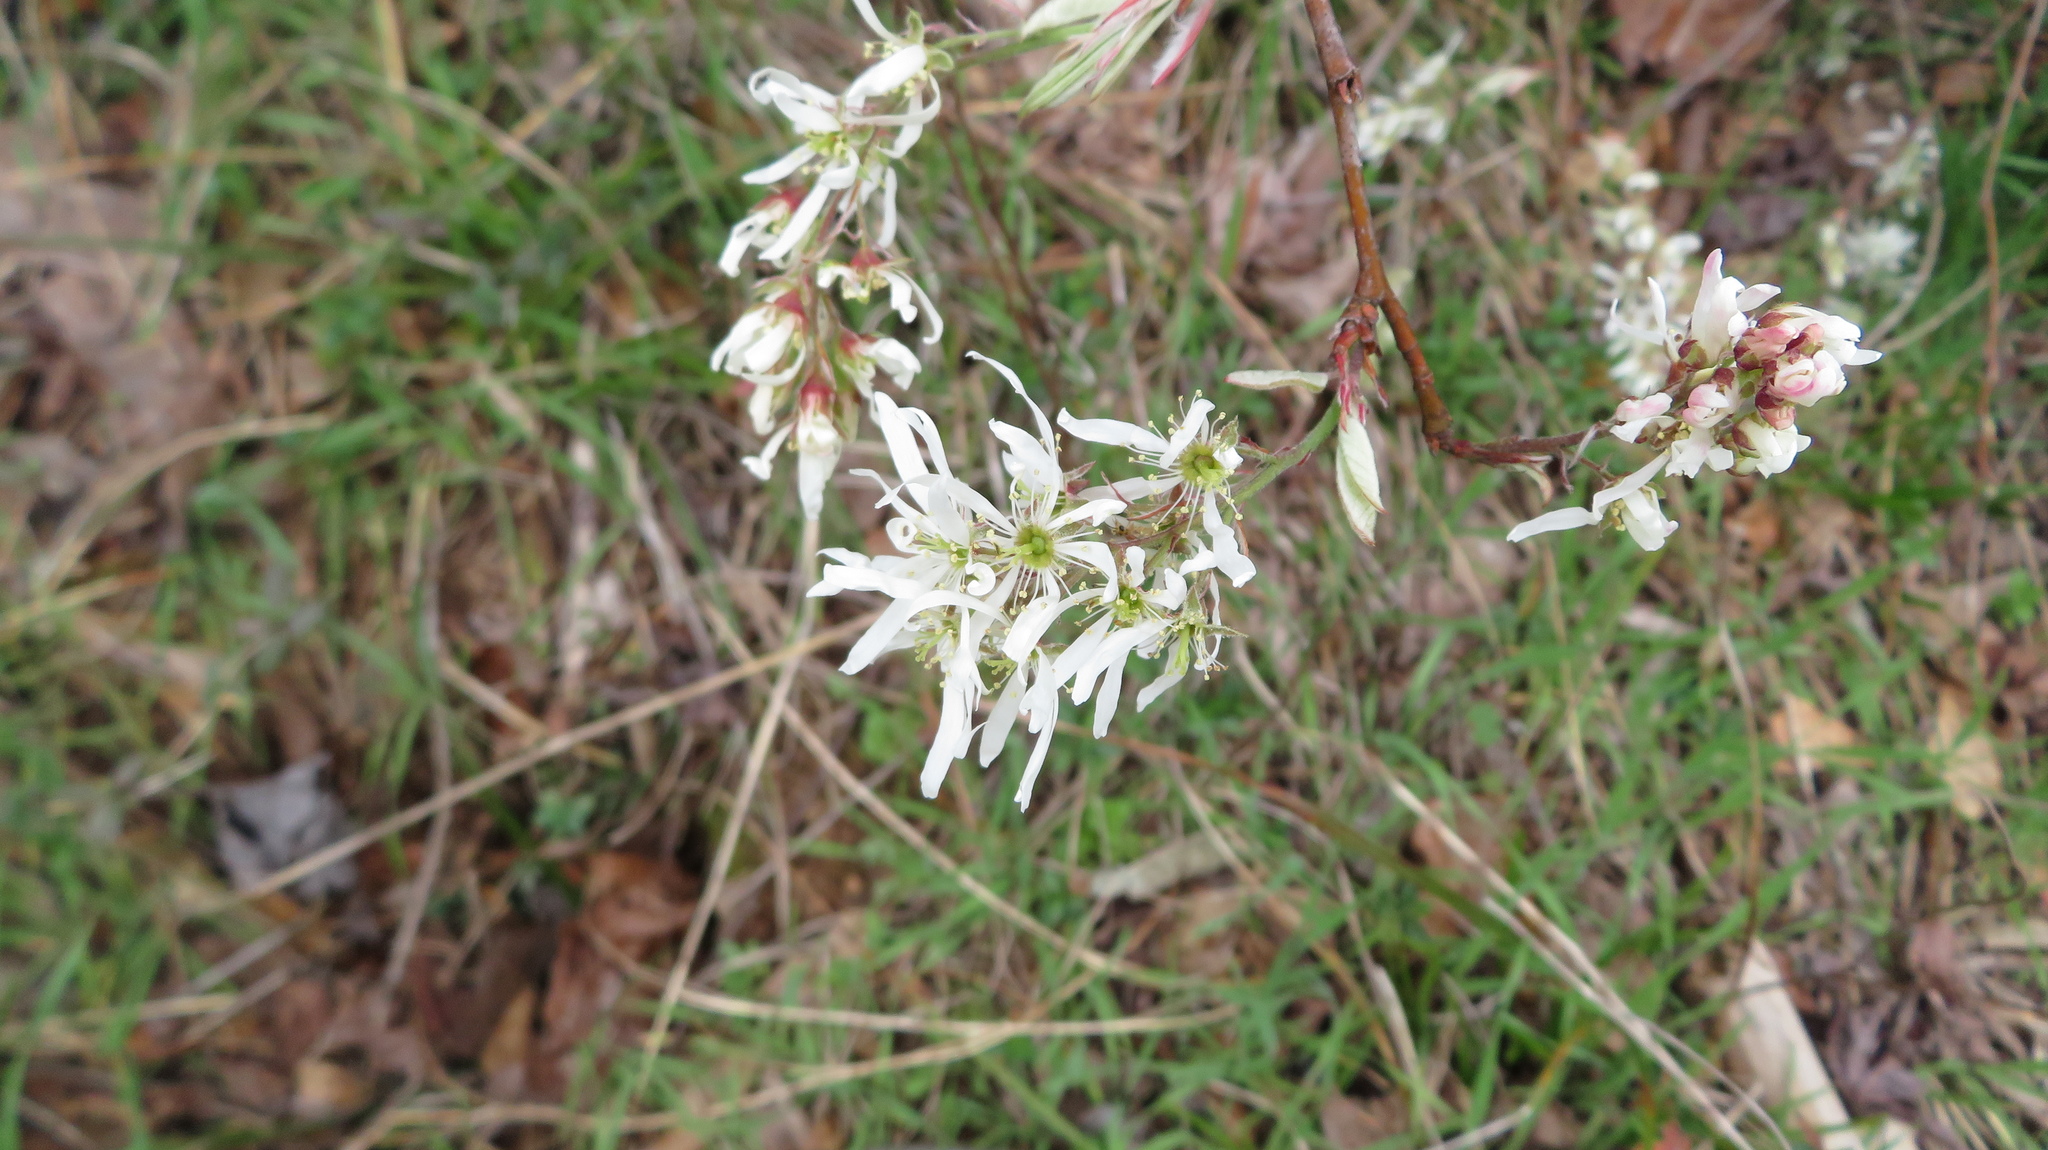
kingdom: Plantae
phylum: Tracheophyta
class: Magnoliopsida
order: Rosales
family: Rosaceae
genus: Amelanchier
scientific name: Amelanchier arborea
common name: Downy serviceberry
